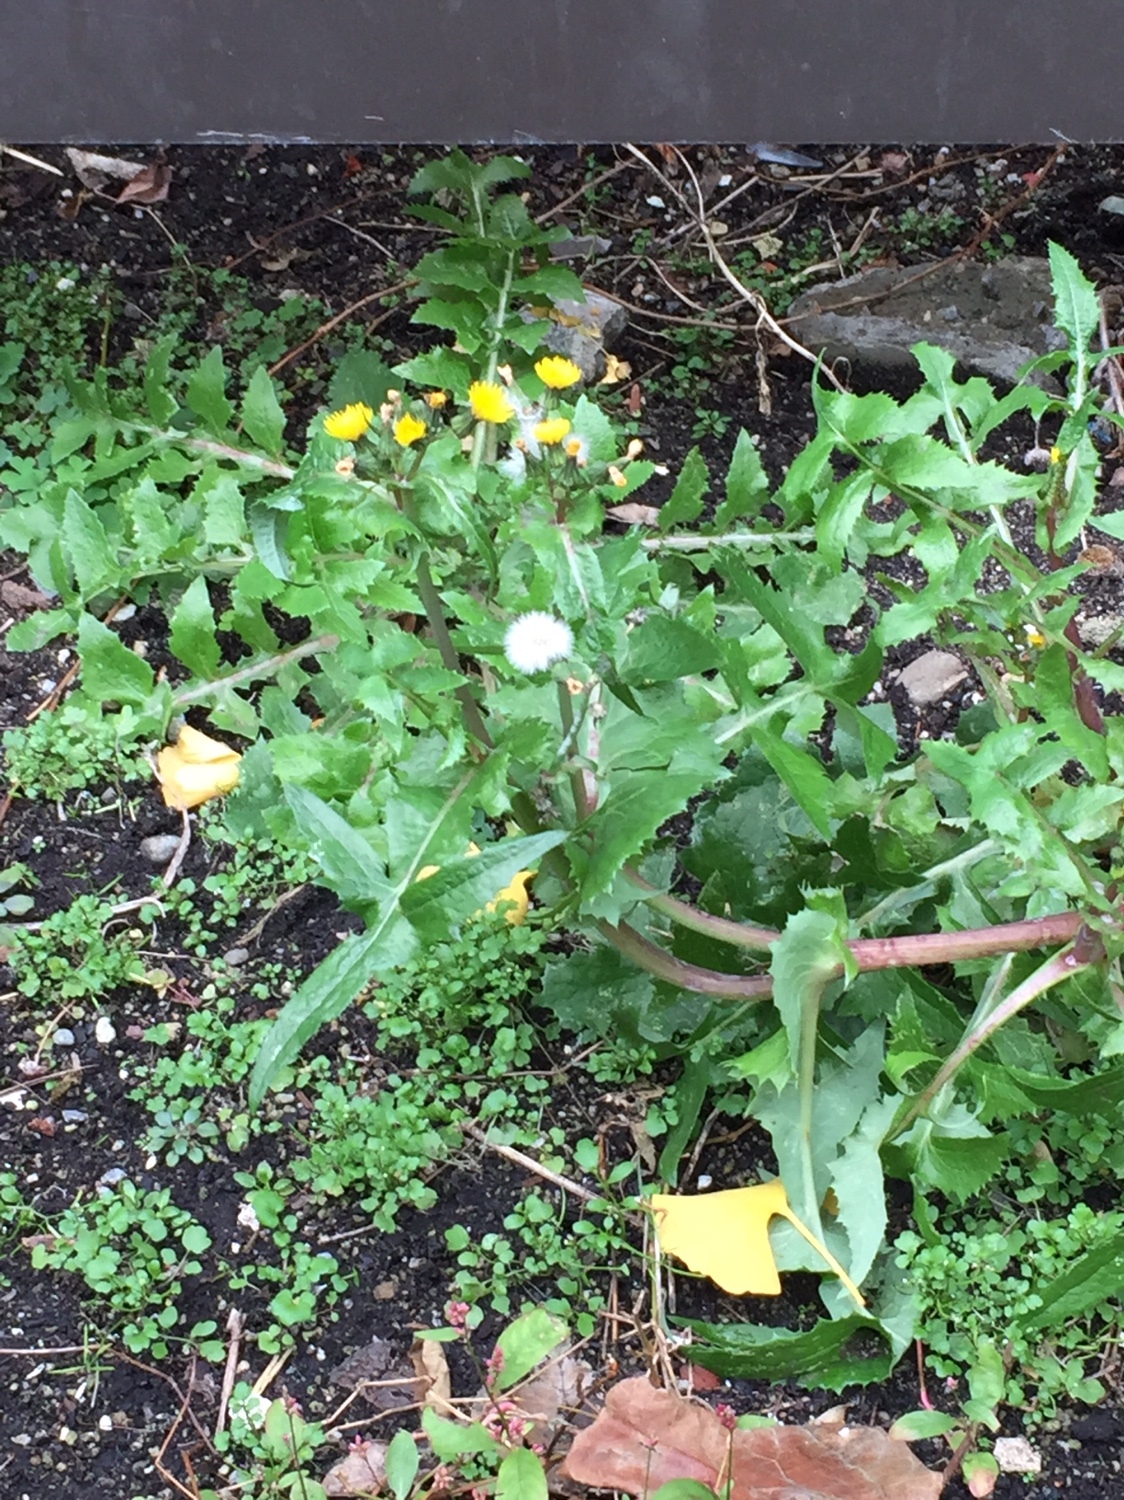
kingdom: Plantae
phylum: Tracheophyta
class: Magnoliopsida
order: Asterales
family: Asteraceae
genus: Sonchus
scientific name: Sonchus oleraceus
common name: Common sowthistle
